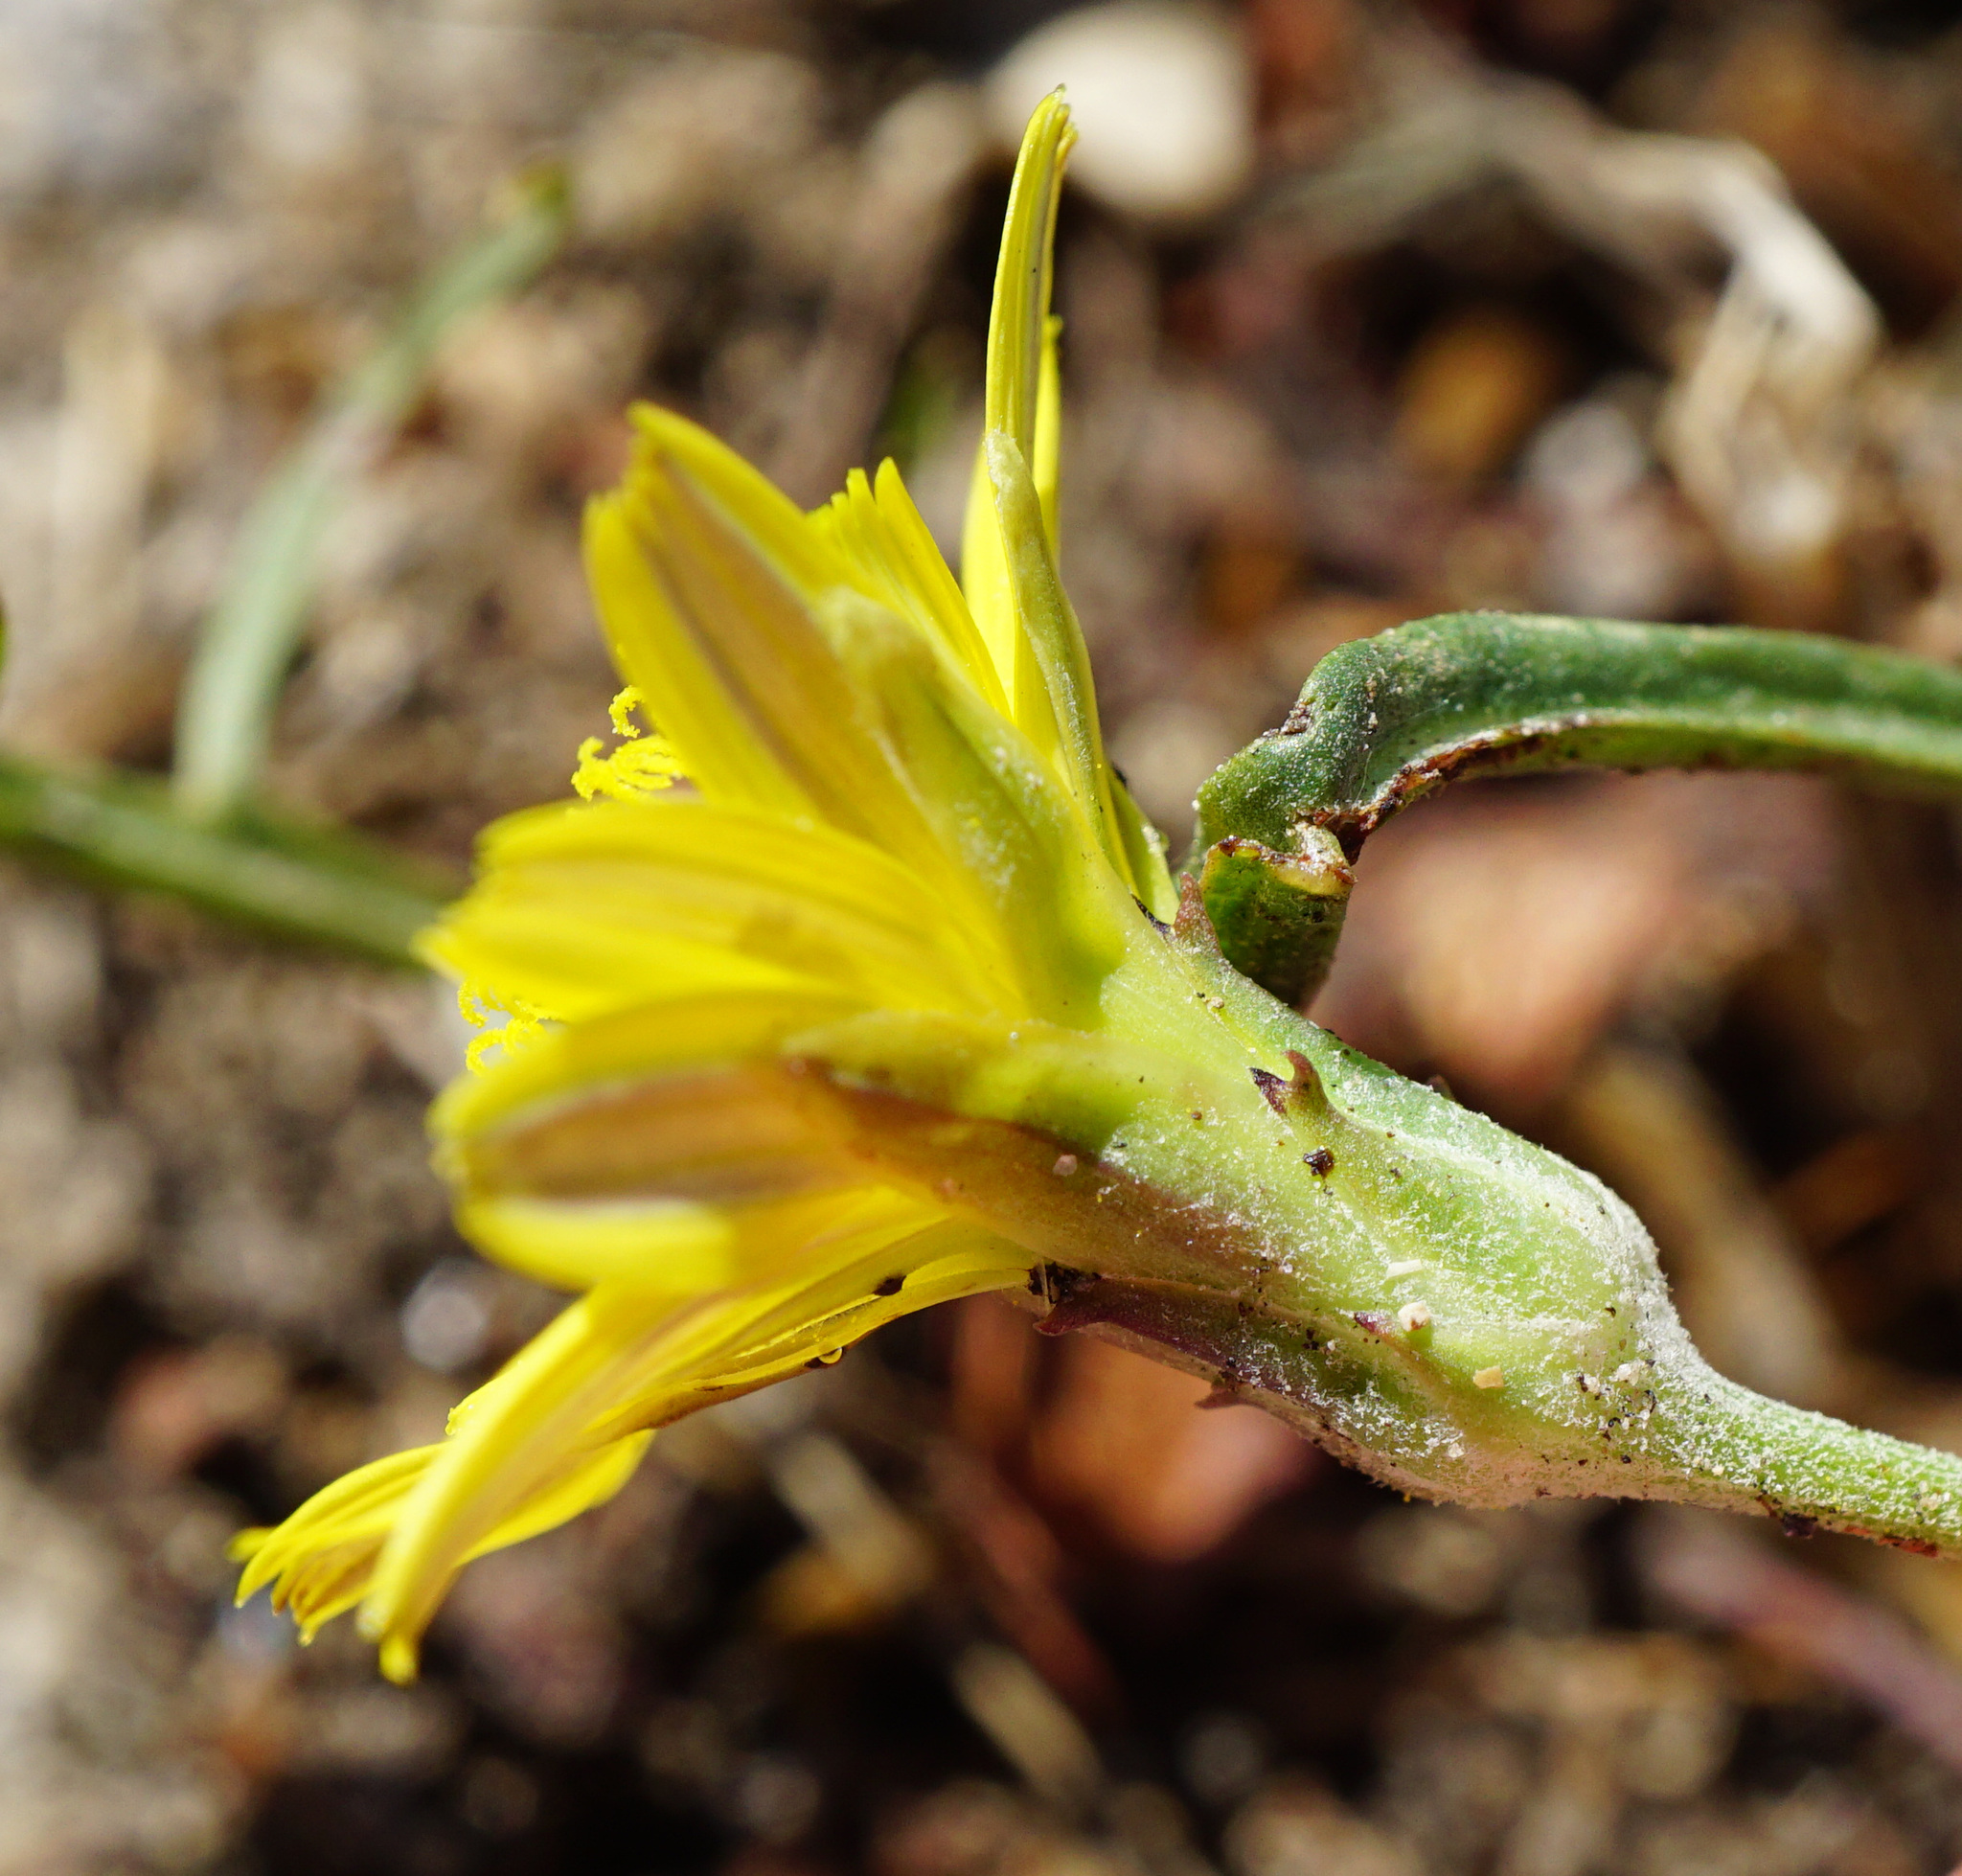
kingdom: Plantae
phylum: Tracheophyta
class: Magnoliopsida
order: Asterales
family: Asteraceae
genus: Scorzonera
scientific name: Scorzonera cana
